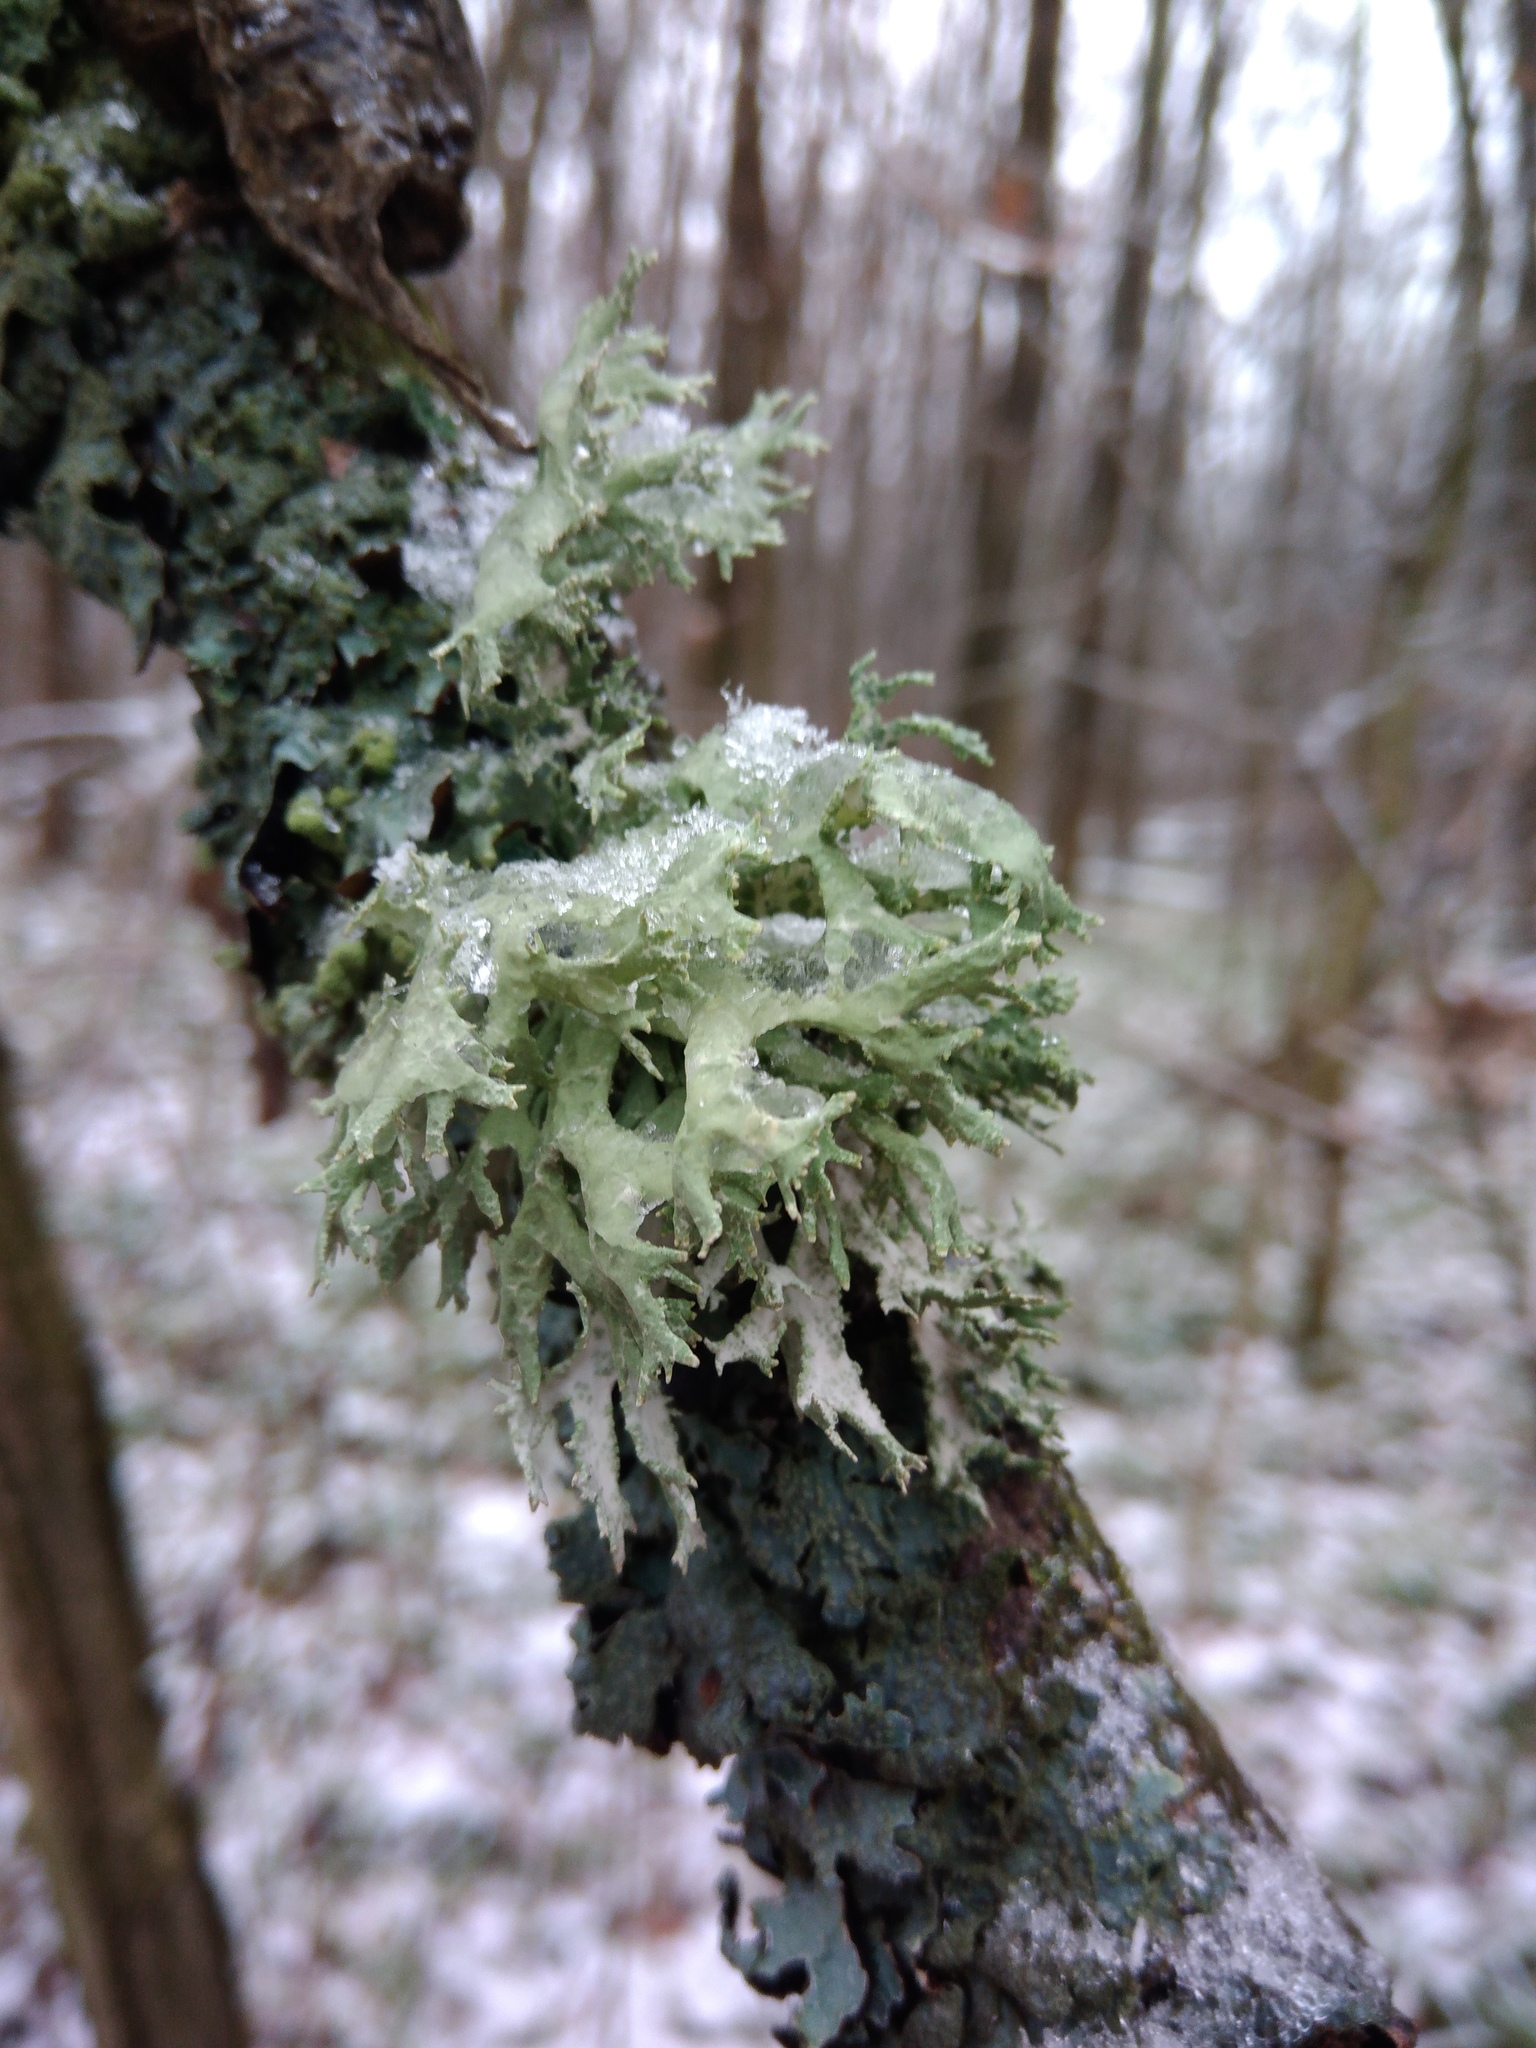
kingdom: Fungi
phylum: Ascomycota
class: Lecanoromycetes
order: Lecanorales
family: Parmeliaceae
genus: Evernia
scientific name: Evernia prunastri
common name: Oak moss
